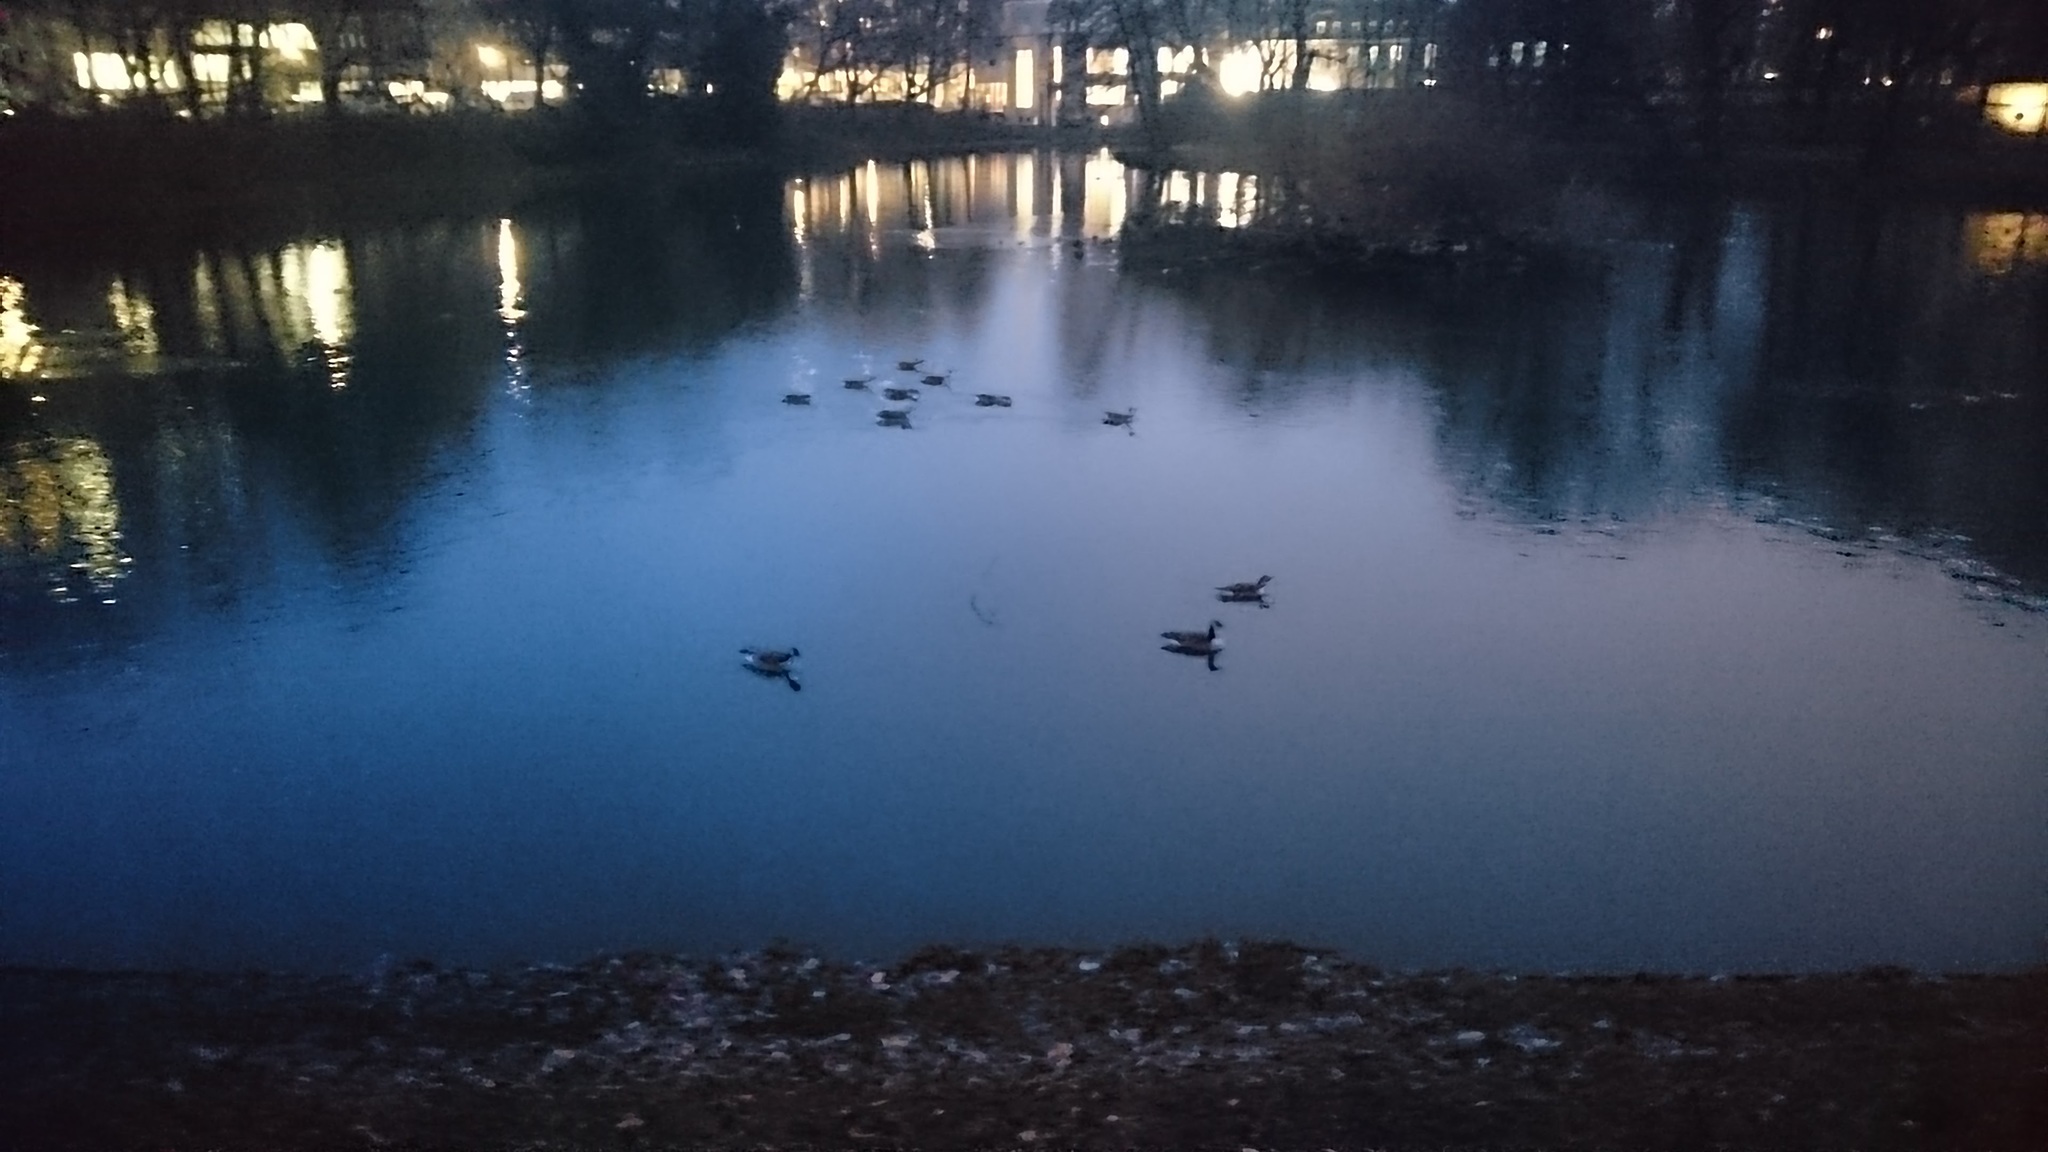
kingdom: Animalia
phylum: Chordata
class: Aves
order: Anseriformes
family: Anatidae
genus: Branta
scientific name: Branta canadensis
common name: Canada goose
